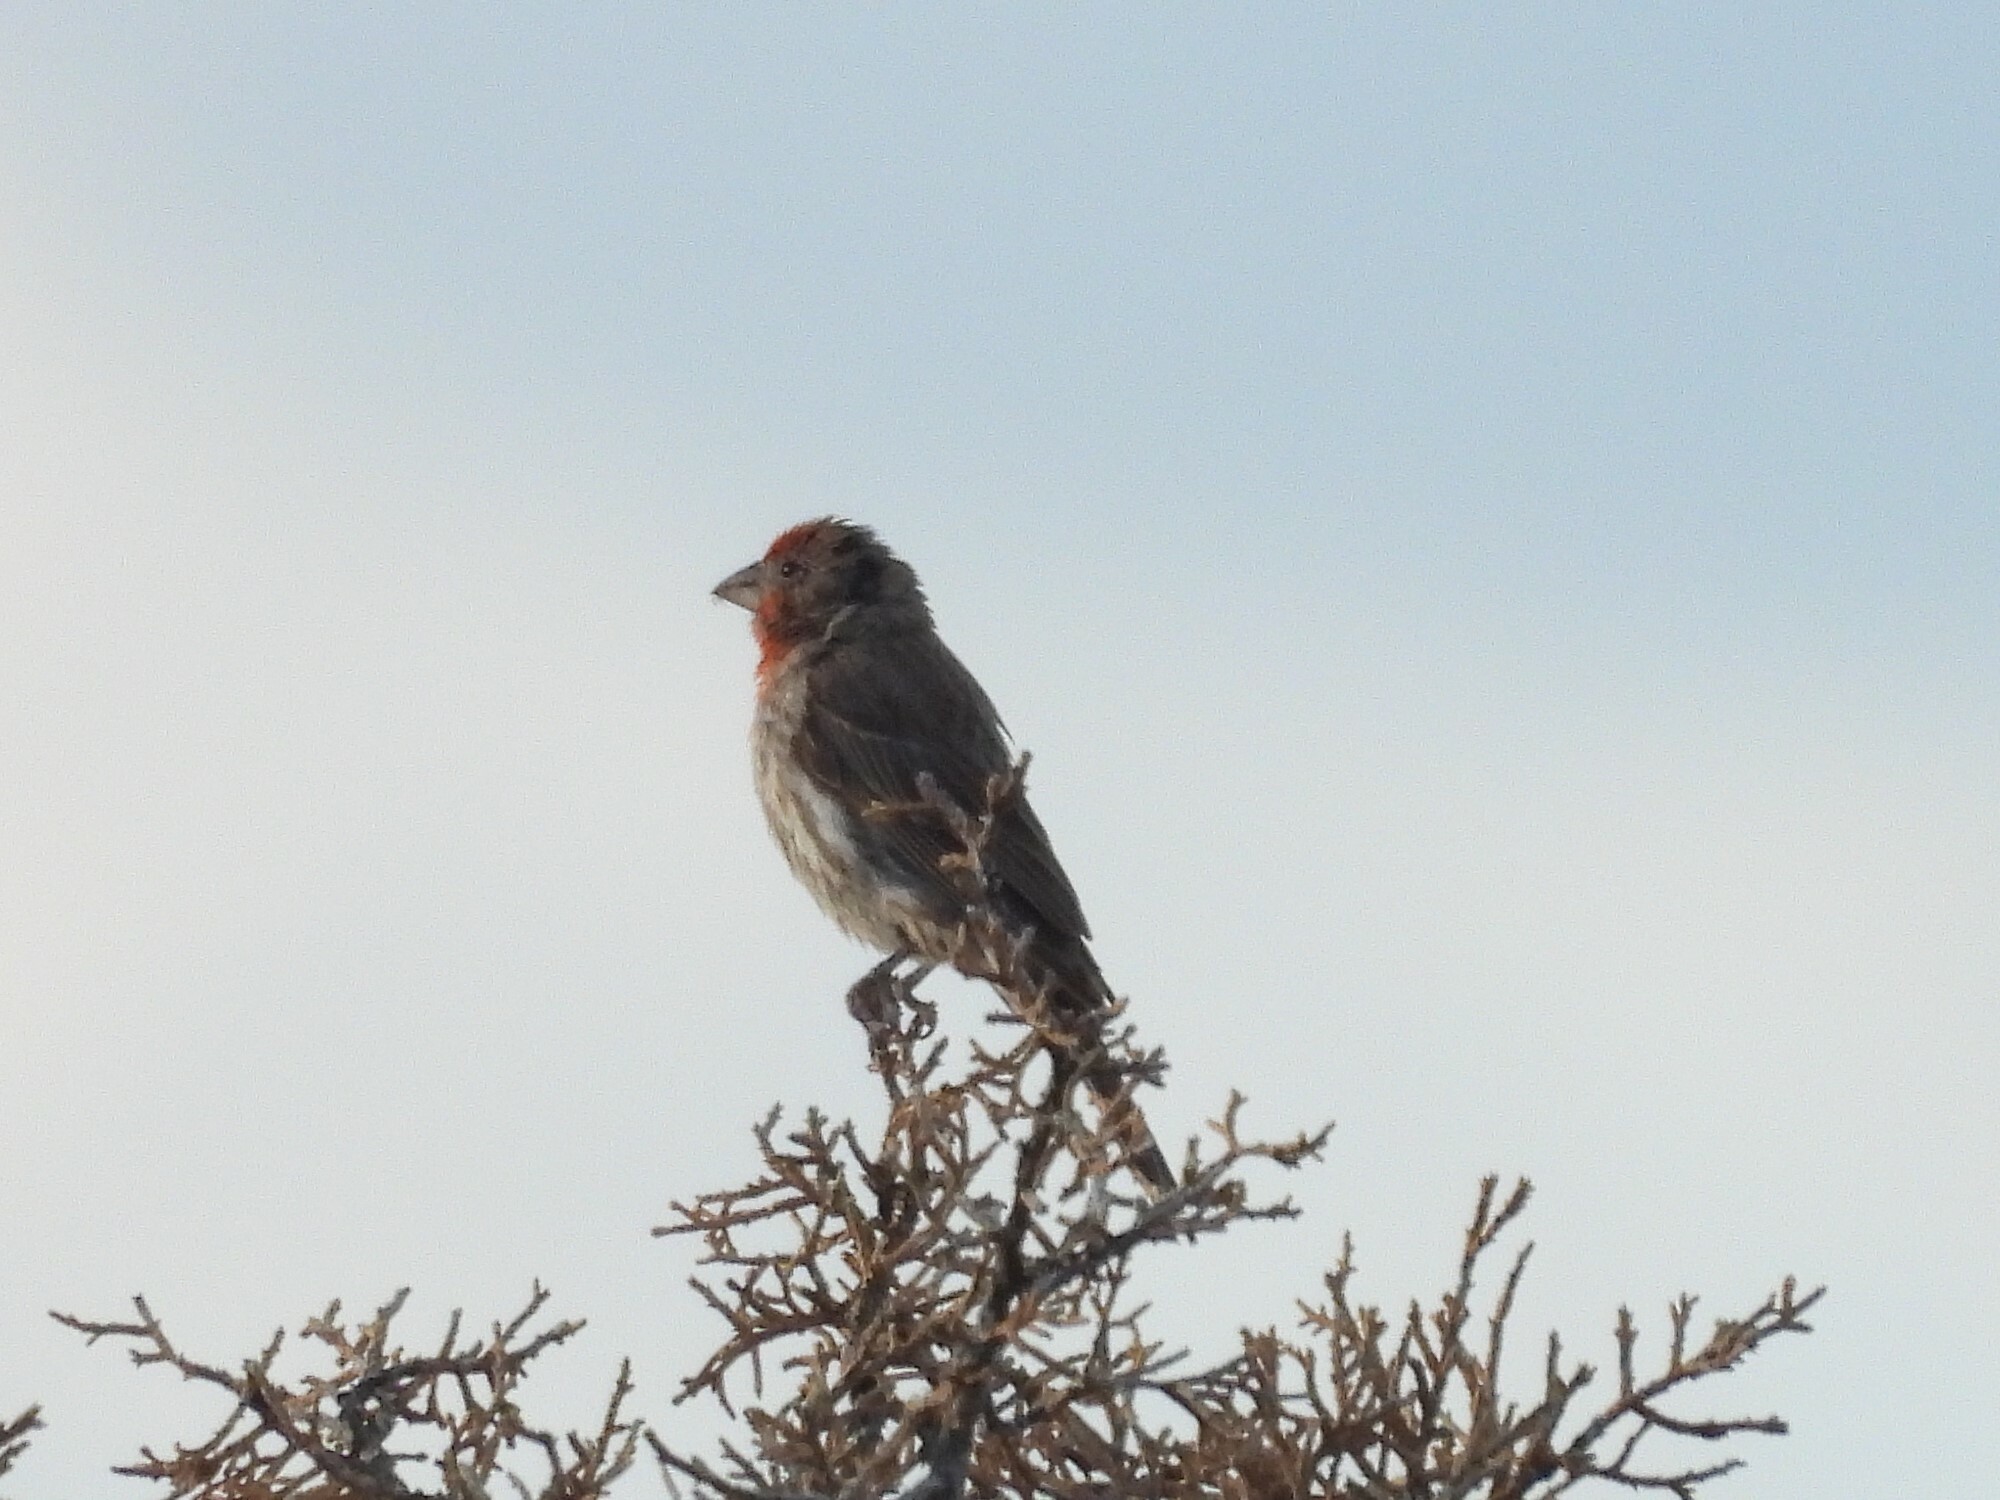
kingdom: Animalia
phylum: Chordata
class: Aves
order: Passeriformes
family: Fringillidae
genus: Haemorhous
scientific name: Haemorhous mexicanus
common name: House finch
